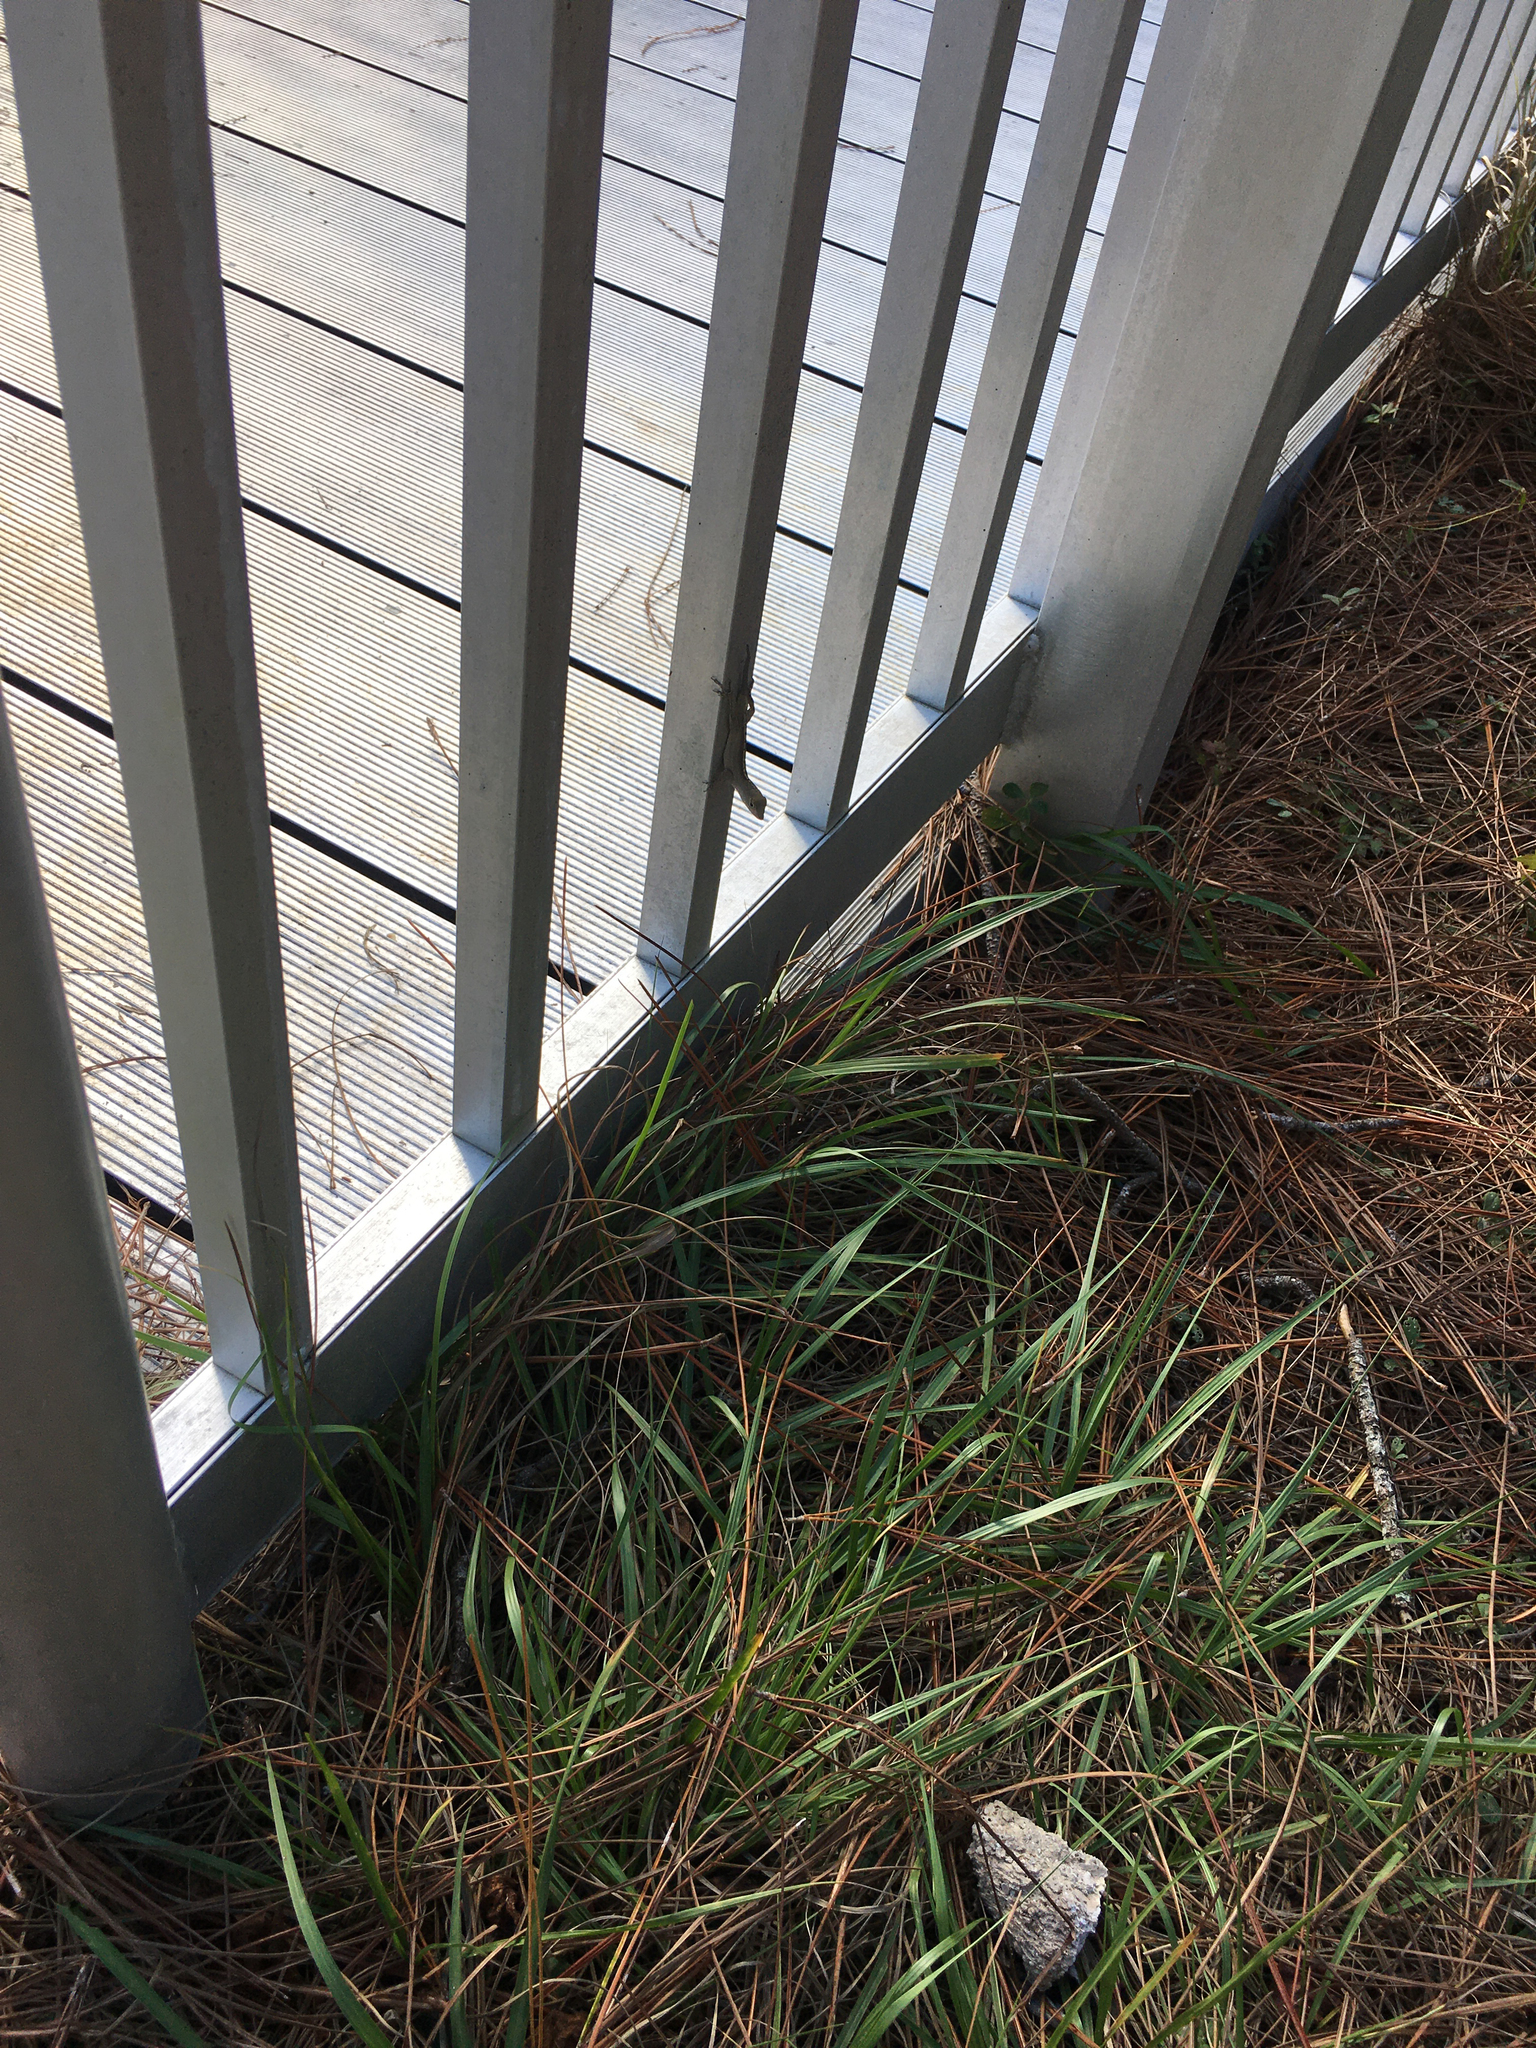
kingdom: Animalia
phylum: Chordata
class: Squamata
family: Dactyloidae
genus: Anolis
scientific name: Anolis sagrei
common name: Brown anole
